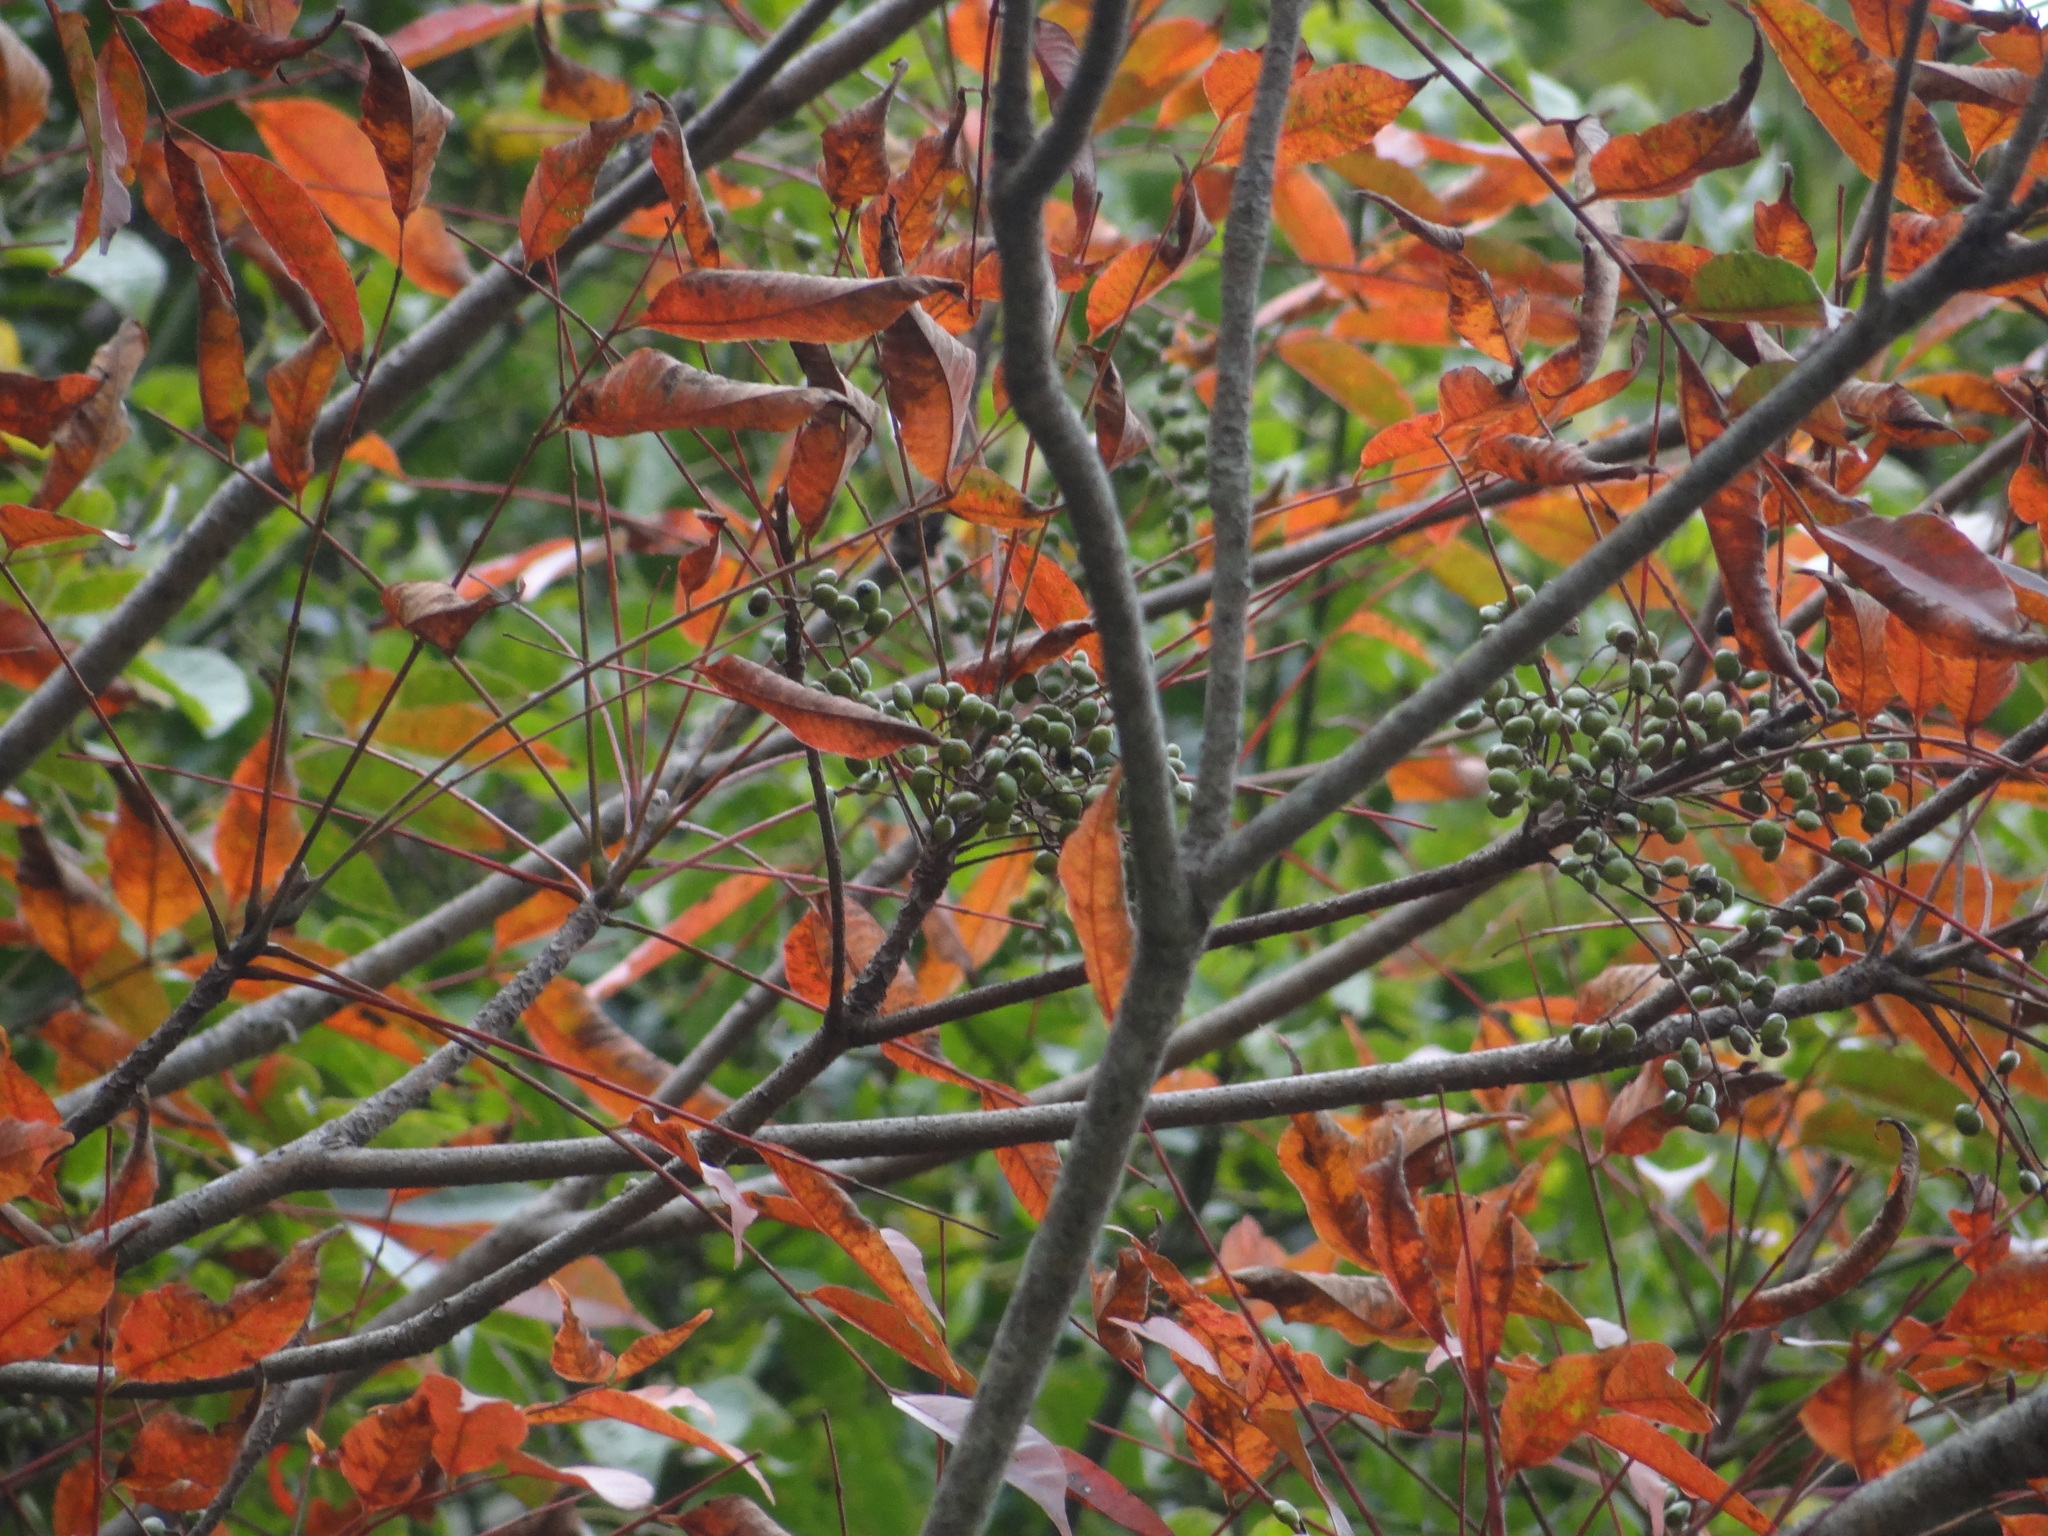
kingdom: Plantae
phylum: Tracheophyta
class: Magnoliopsida
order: Sapindales
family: Anacardiaceae
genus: Toxicodendron
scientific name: Toxicodendron succedaneum
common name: Wax tree
